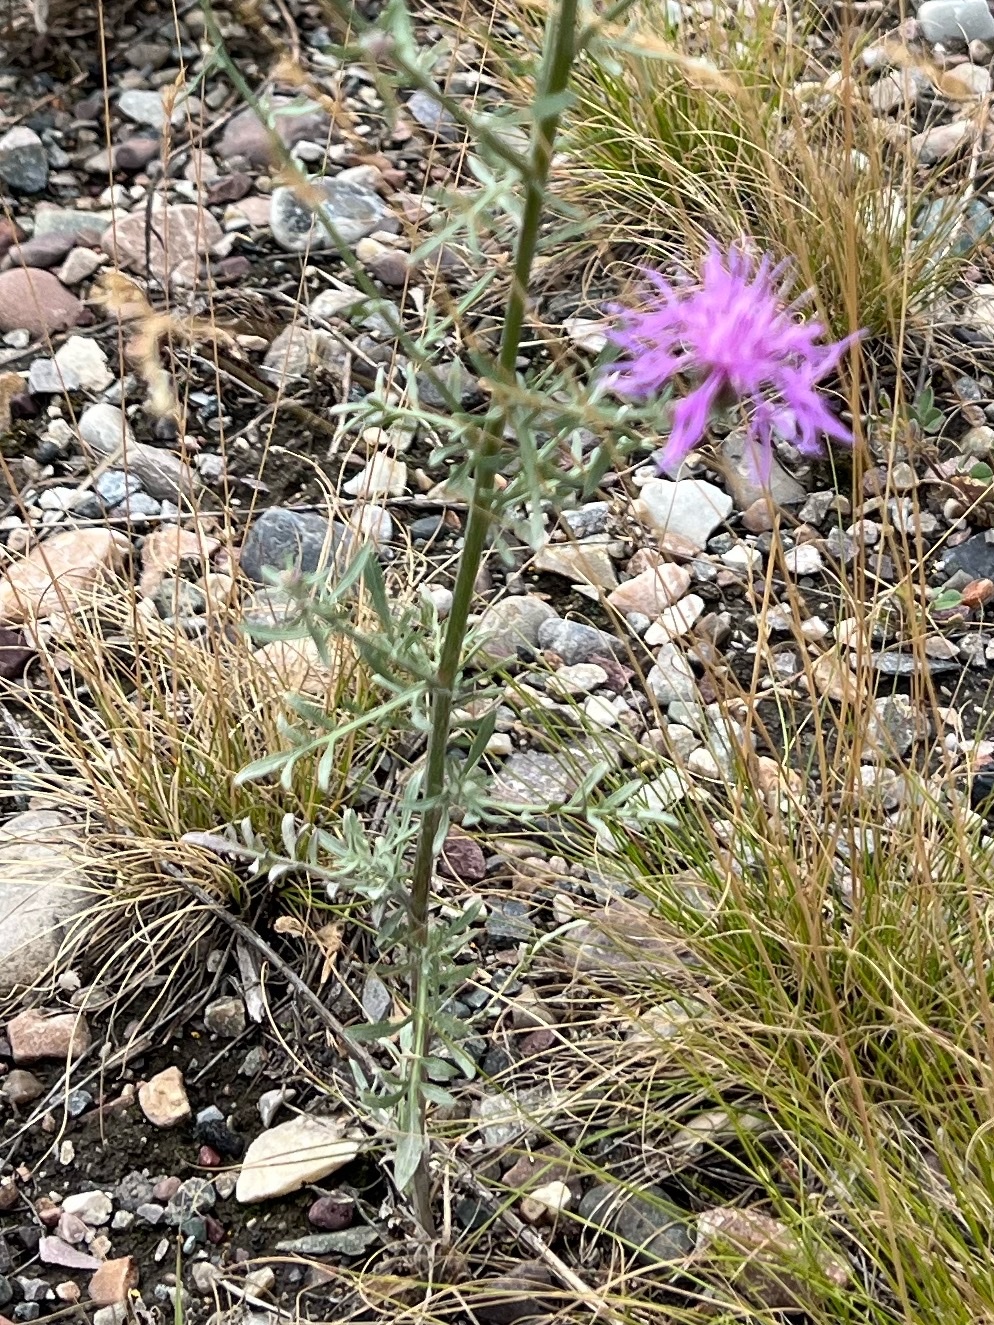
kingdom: Plantae
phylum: Tracheophyta
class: Magnoliopsida
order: Asterales
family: Asteraceae
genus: Centaurea
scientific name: Centaurea stoebe
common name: Spotted knapweed
